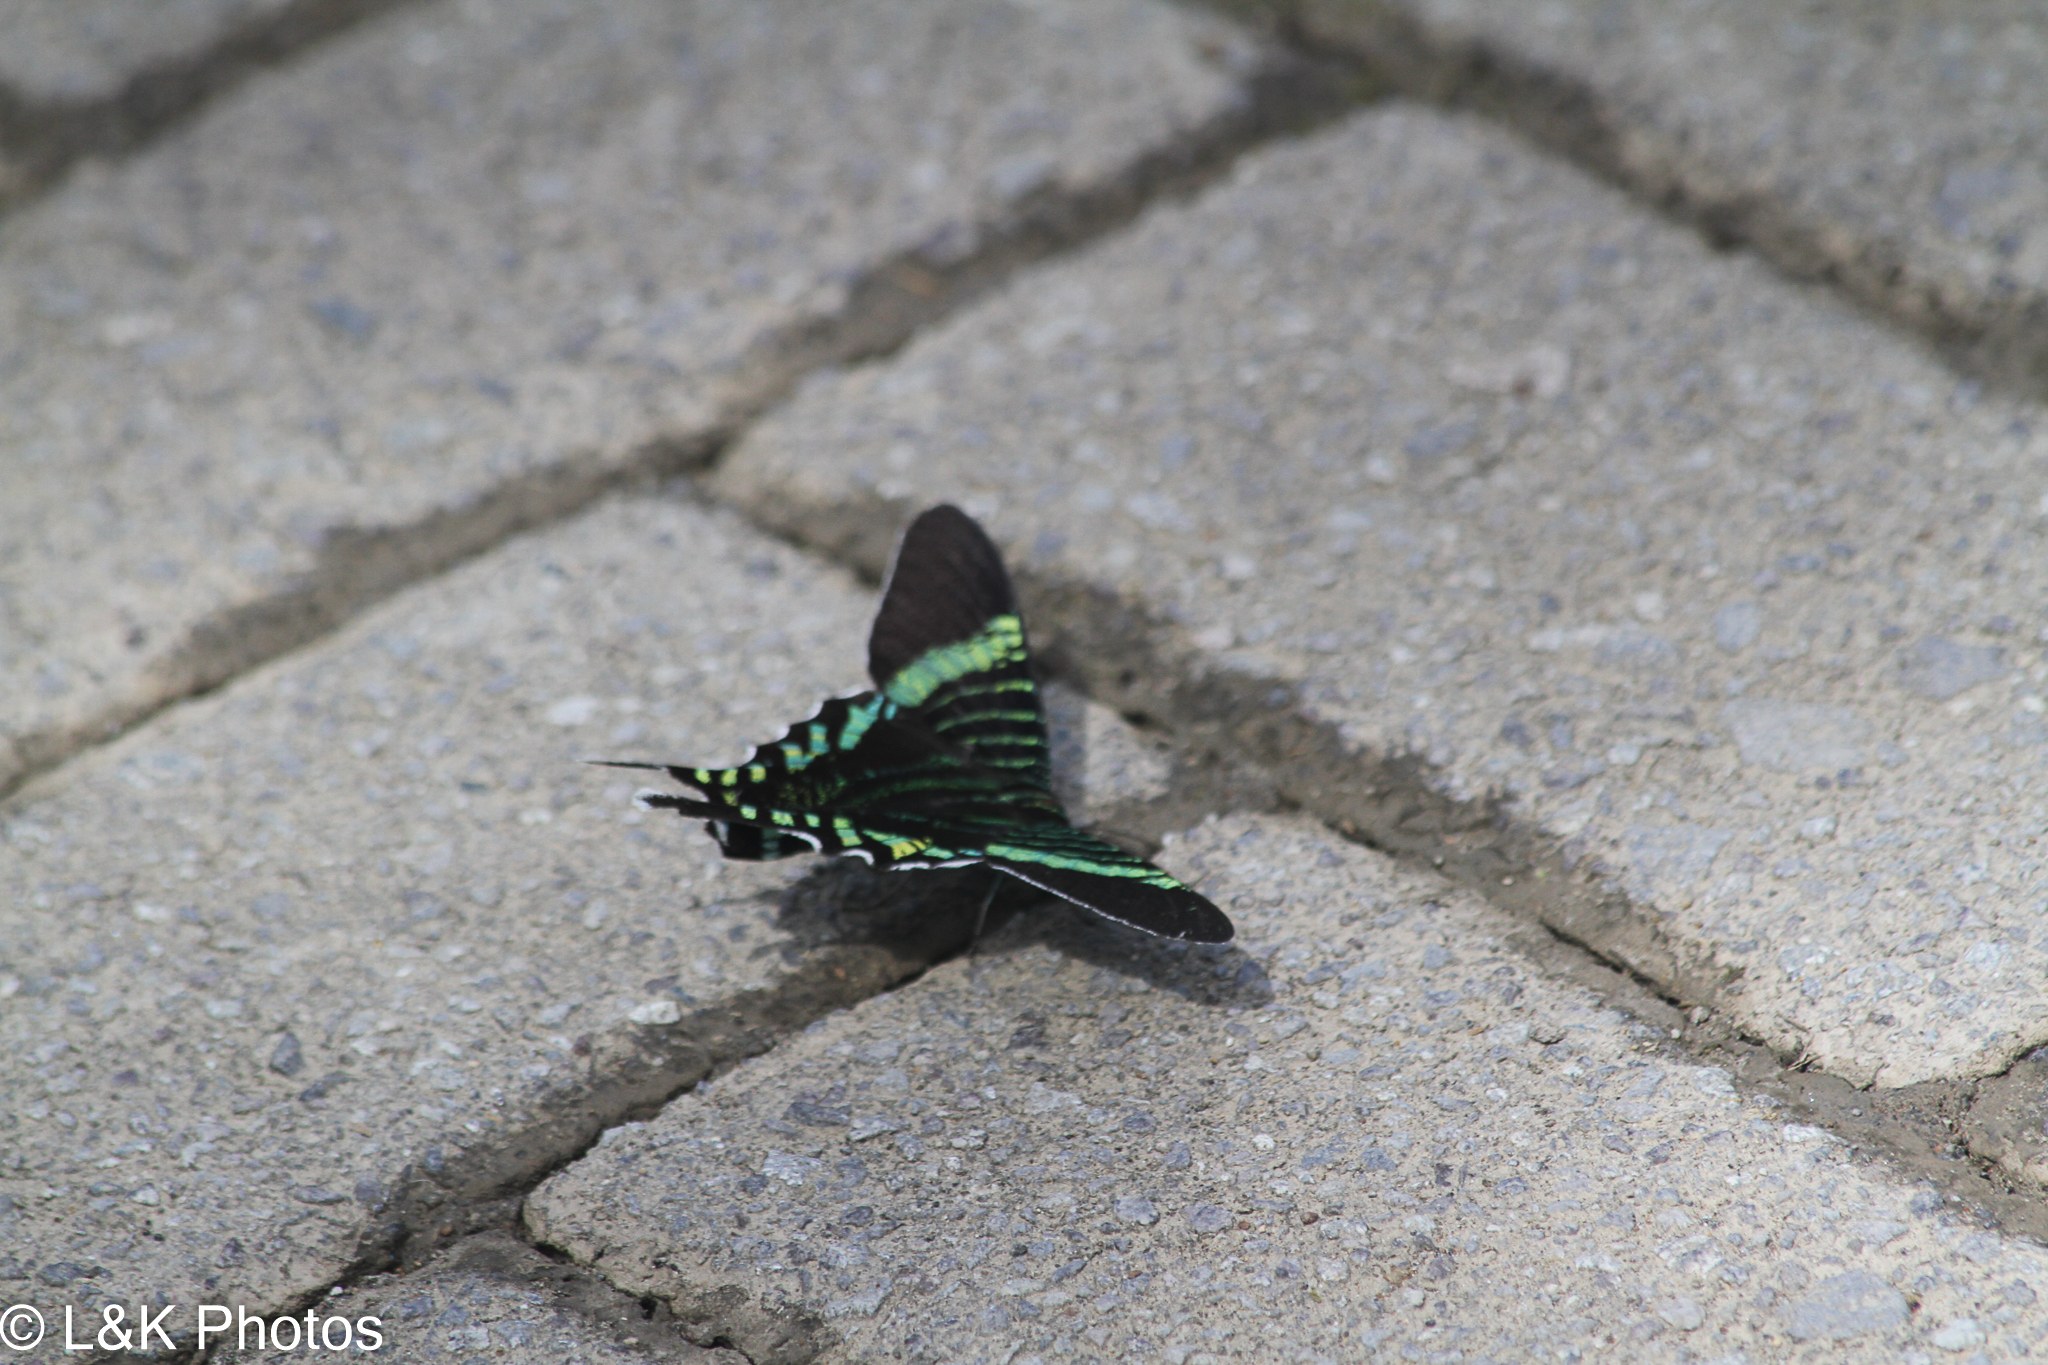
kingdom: Animalia
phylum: Arthropoda
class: Insecta
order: Lepidoptera
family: Uraniidae
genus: Urania
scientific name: Urania fulgens
